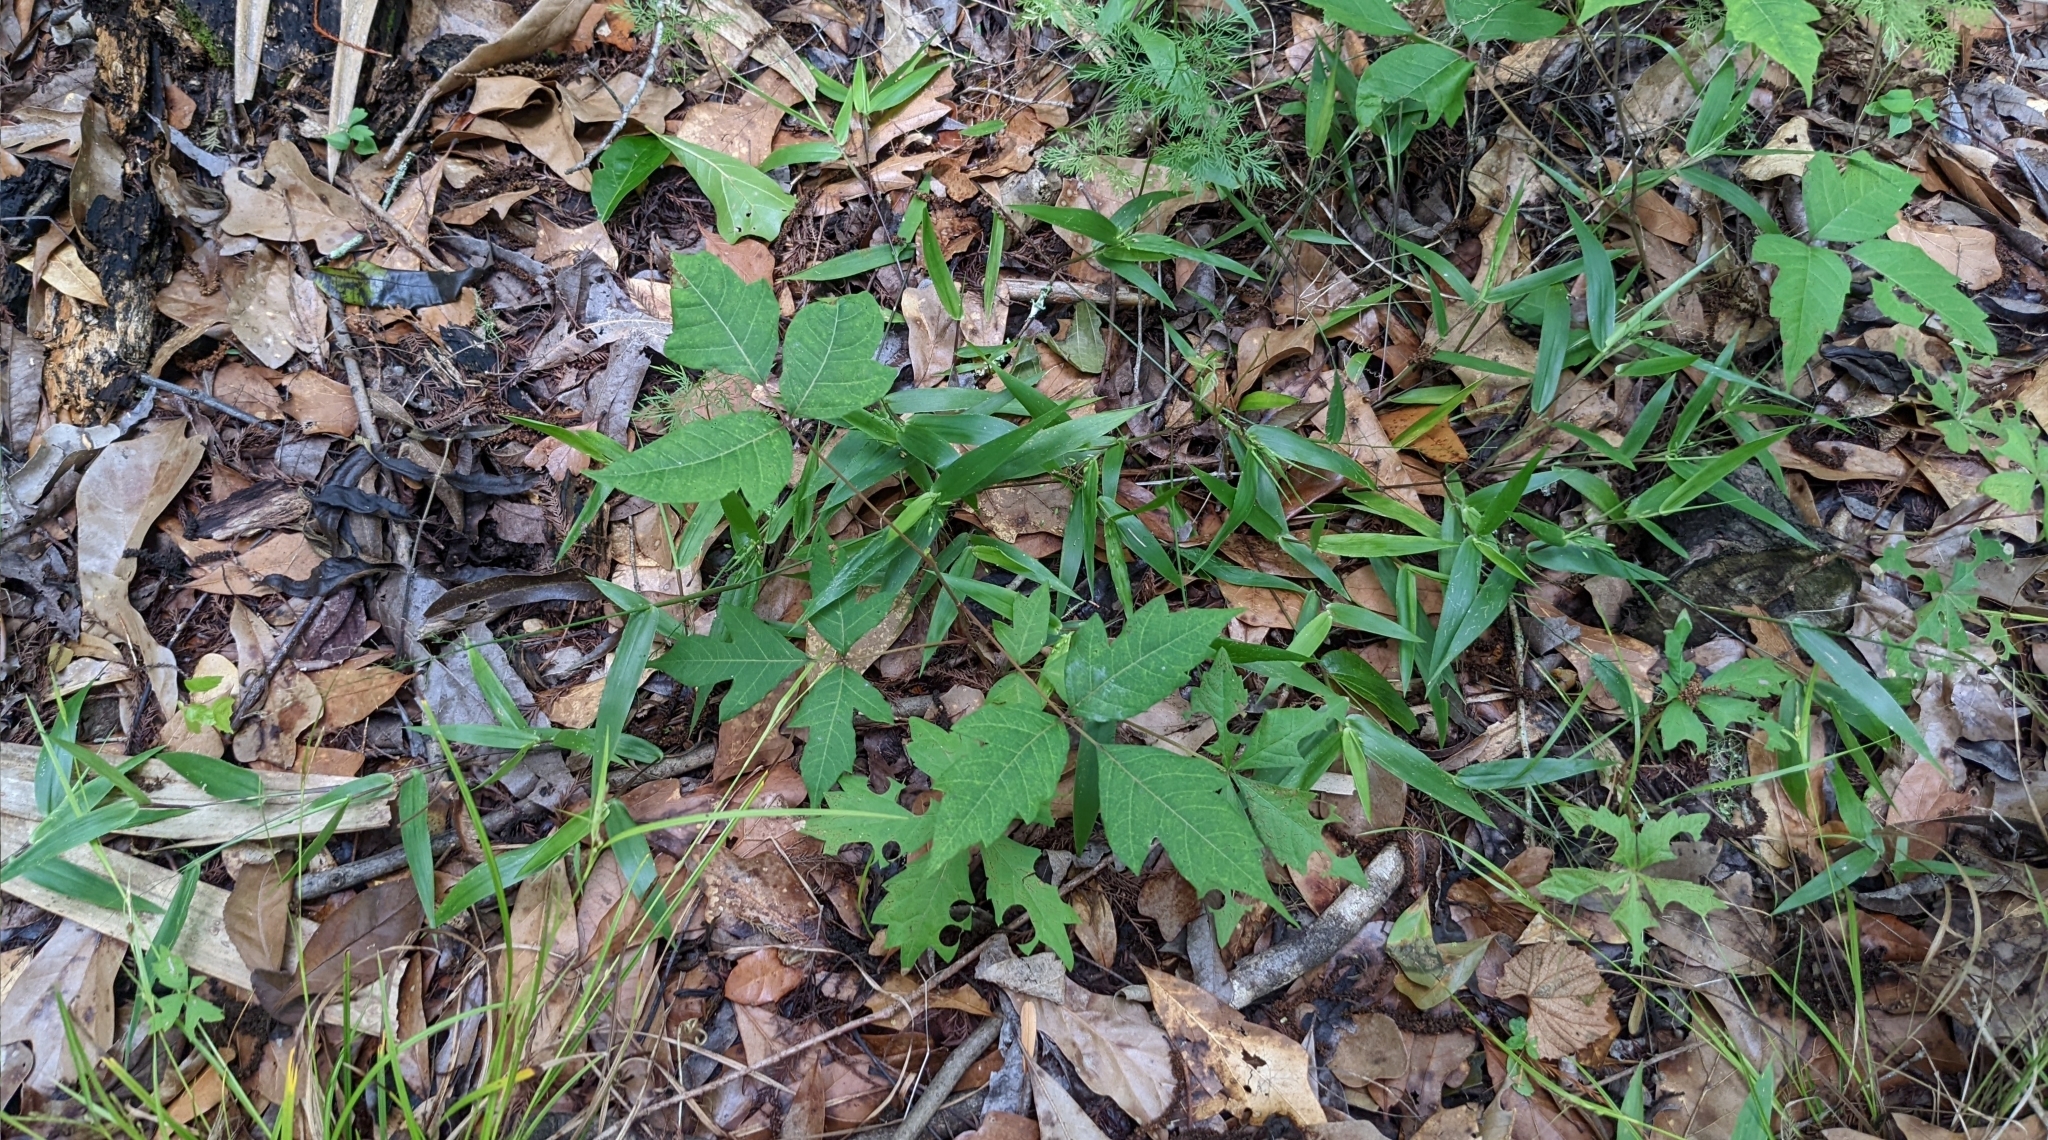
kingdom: Plantae
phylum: Tracheophyta
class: Magnoliopsida
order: Sapindales
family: Anacardiaceae
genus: Toxicodendron
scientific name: Toxicodendron radicans
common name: Poison ivy
